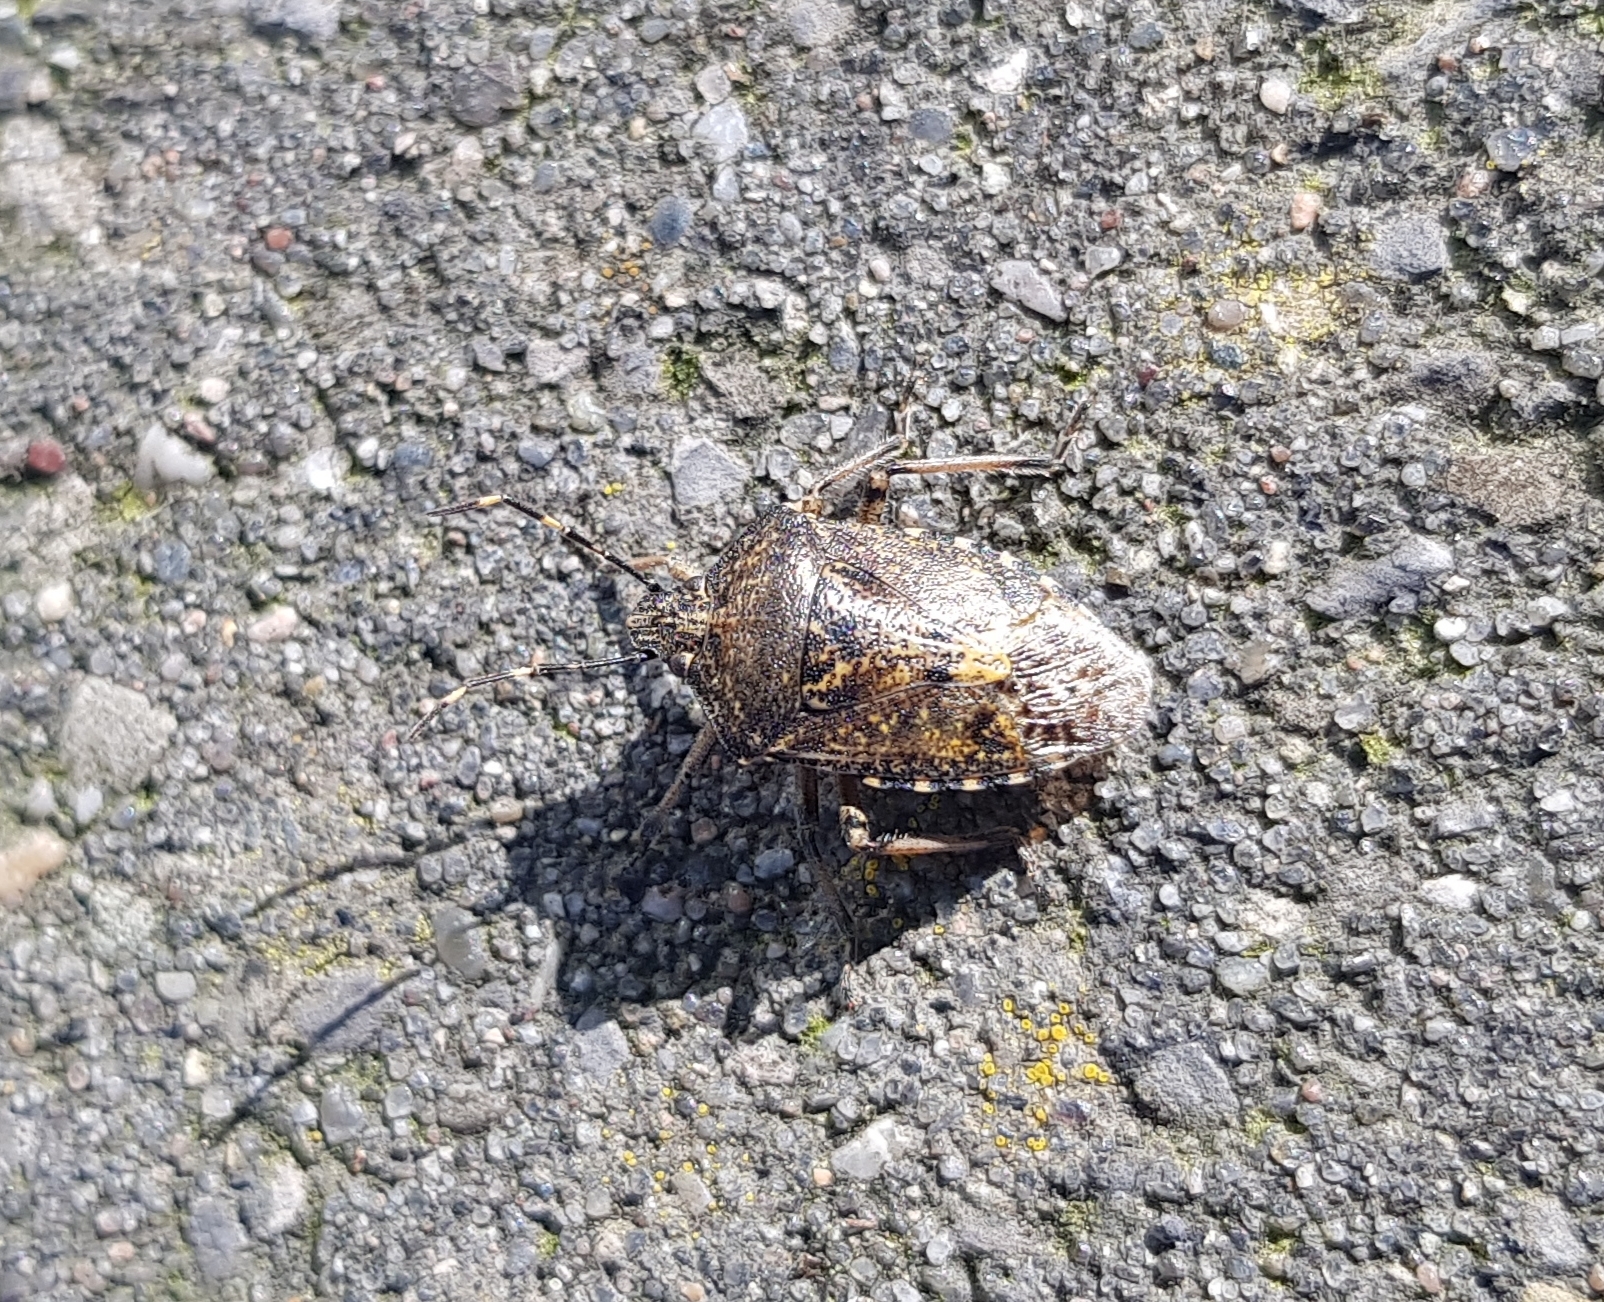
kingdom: Animalia
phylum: Arthropoda
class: Insecta
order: Hemiptera
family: Pentatomidae
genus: Rhaphigaster
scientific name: Rhaphigaster nebulosa
